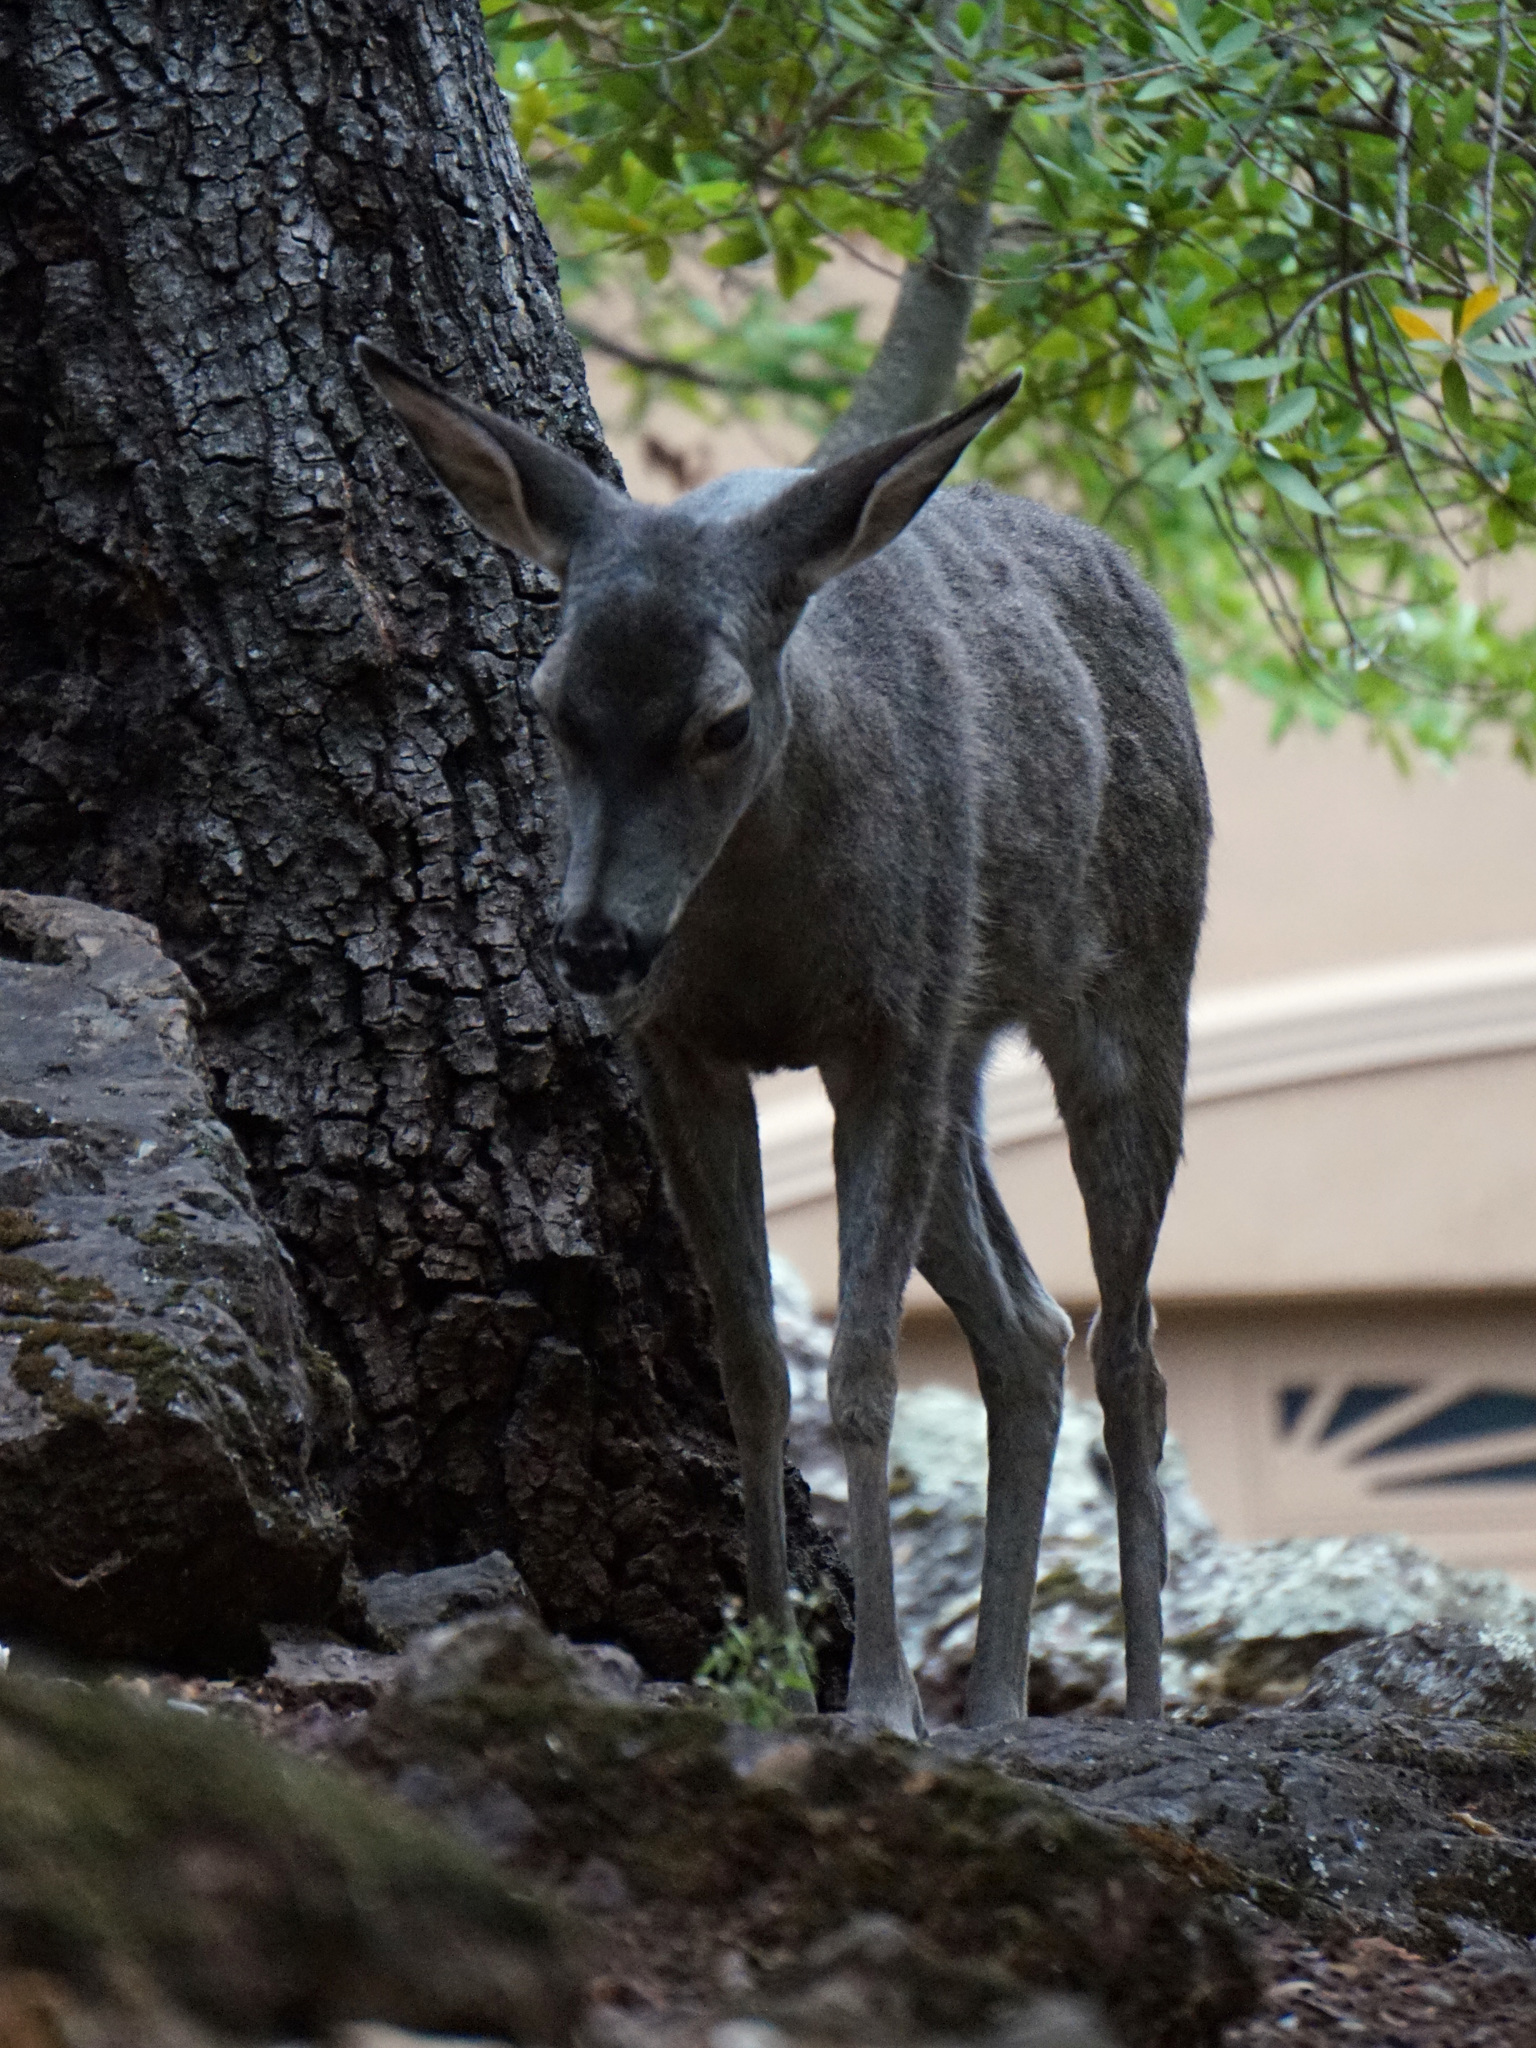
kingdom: Animalia
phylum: Chordata
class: Mammalia
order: Artiodactyla
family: Cervidae
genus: Odocoileus
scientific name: Odocoileus hemionus
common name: Mule deer
